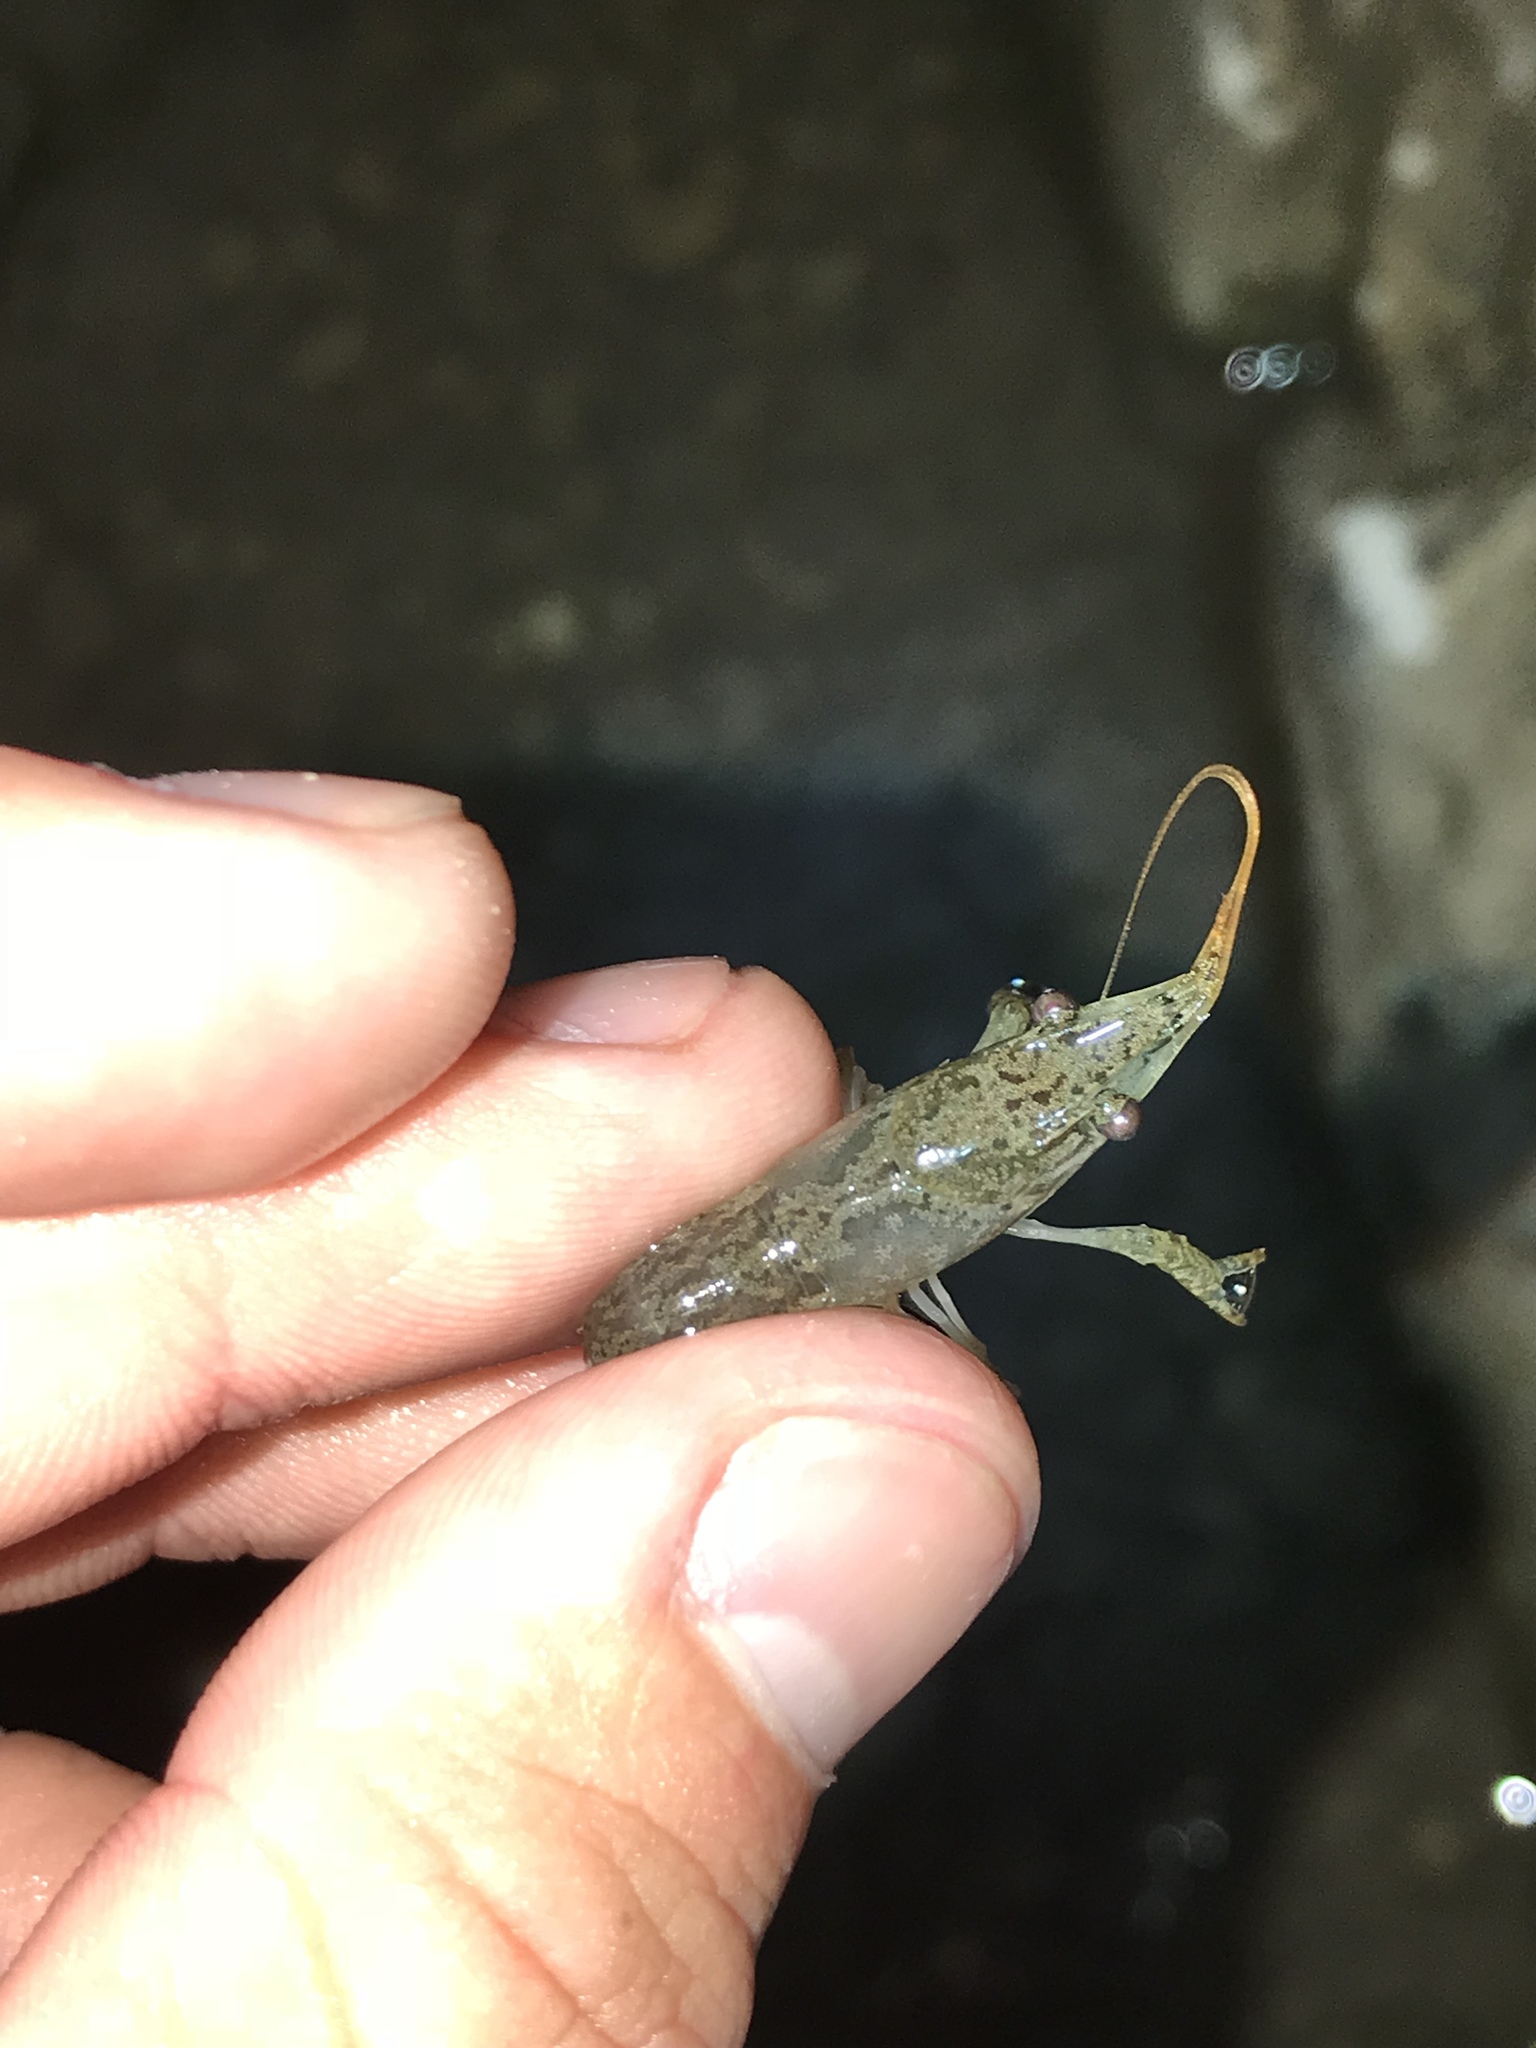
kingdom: Animalia
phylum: Arthropoda
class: Malacostraca
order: Decapoda
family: Cambaridae
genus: Procambarus
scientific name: Procambarus clarkii
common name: Red swamp crayfish
